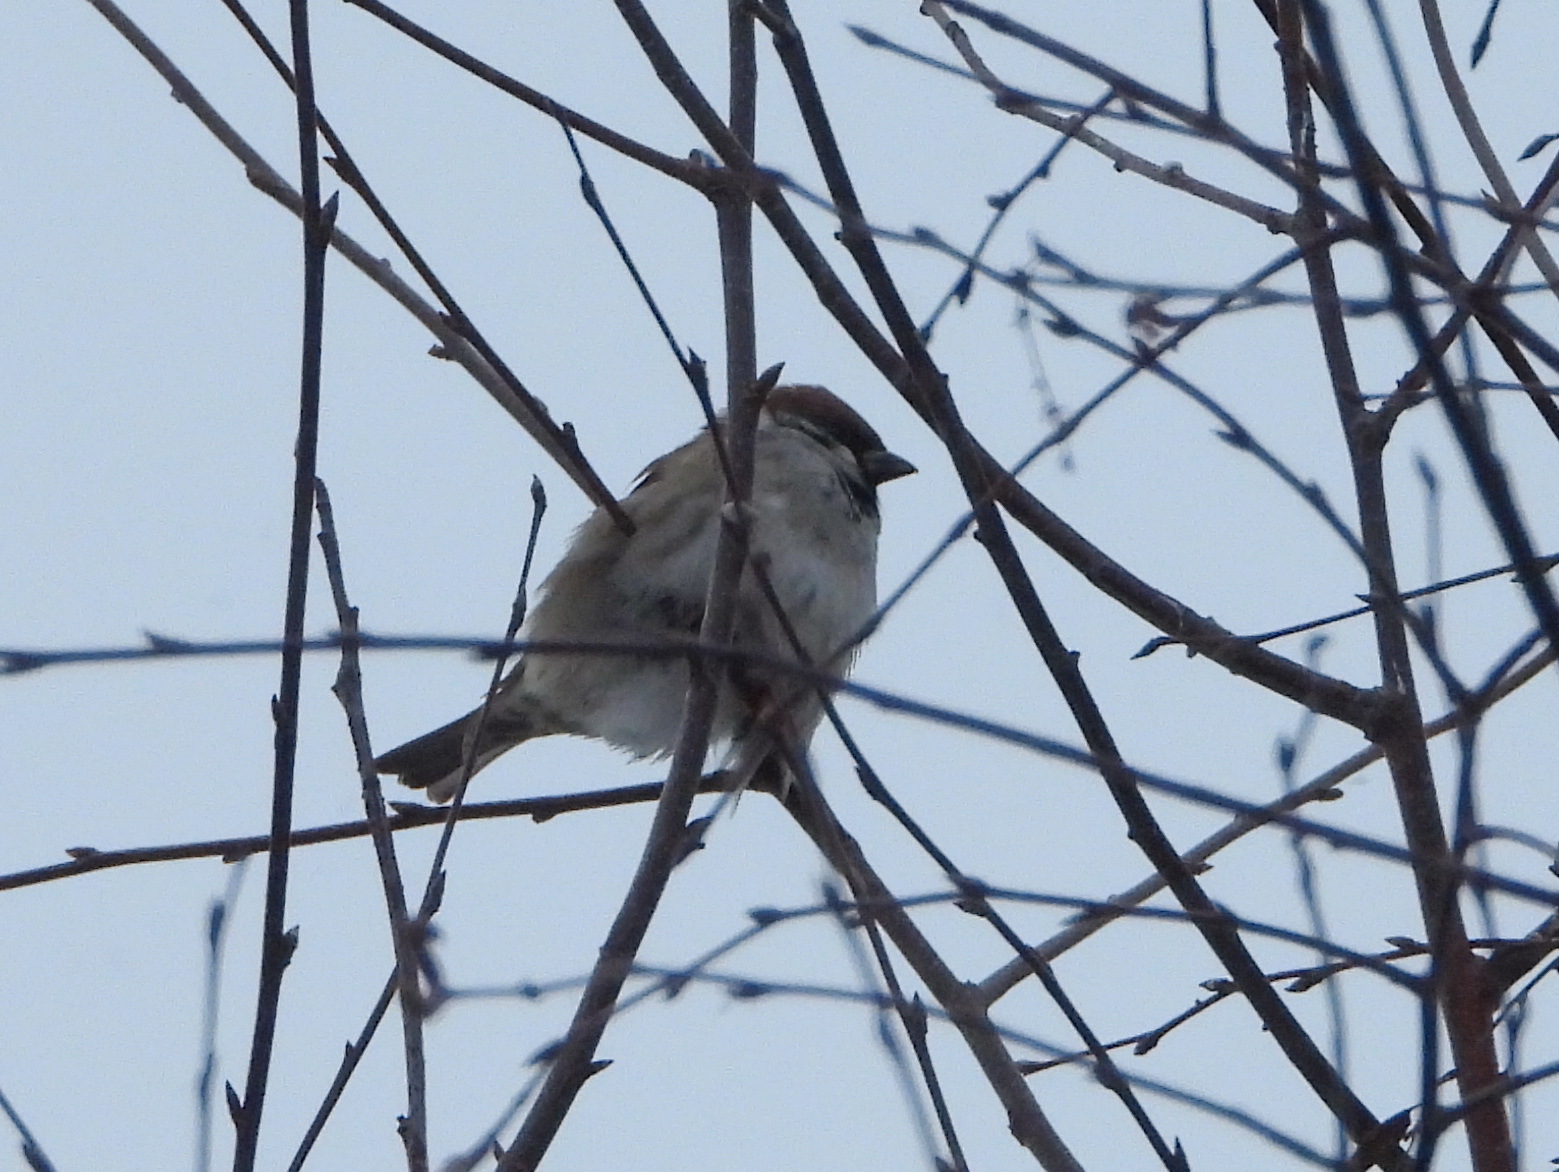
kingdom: Animalia
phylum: Chordata
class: Aves
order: Passeriformes
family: Passeridae
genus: Passer
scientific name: Passer montanus
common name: Eurasian tree sparrow
